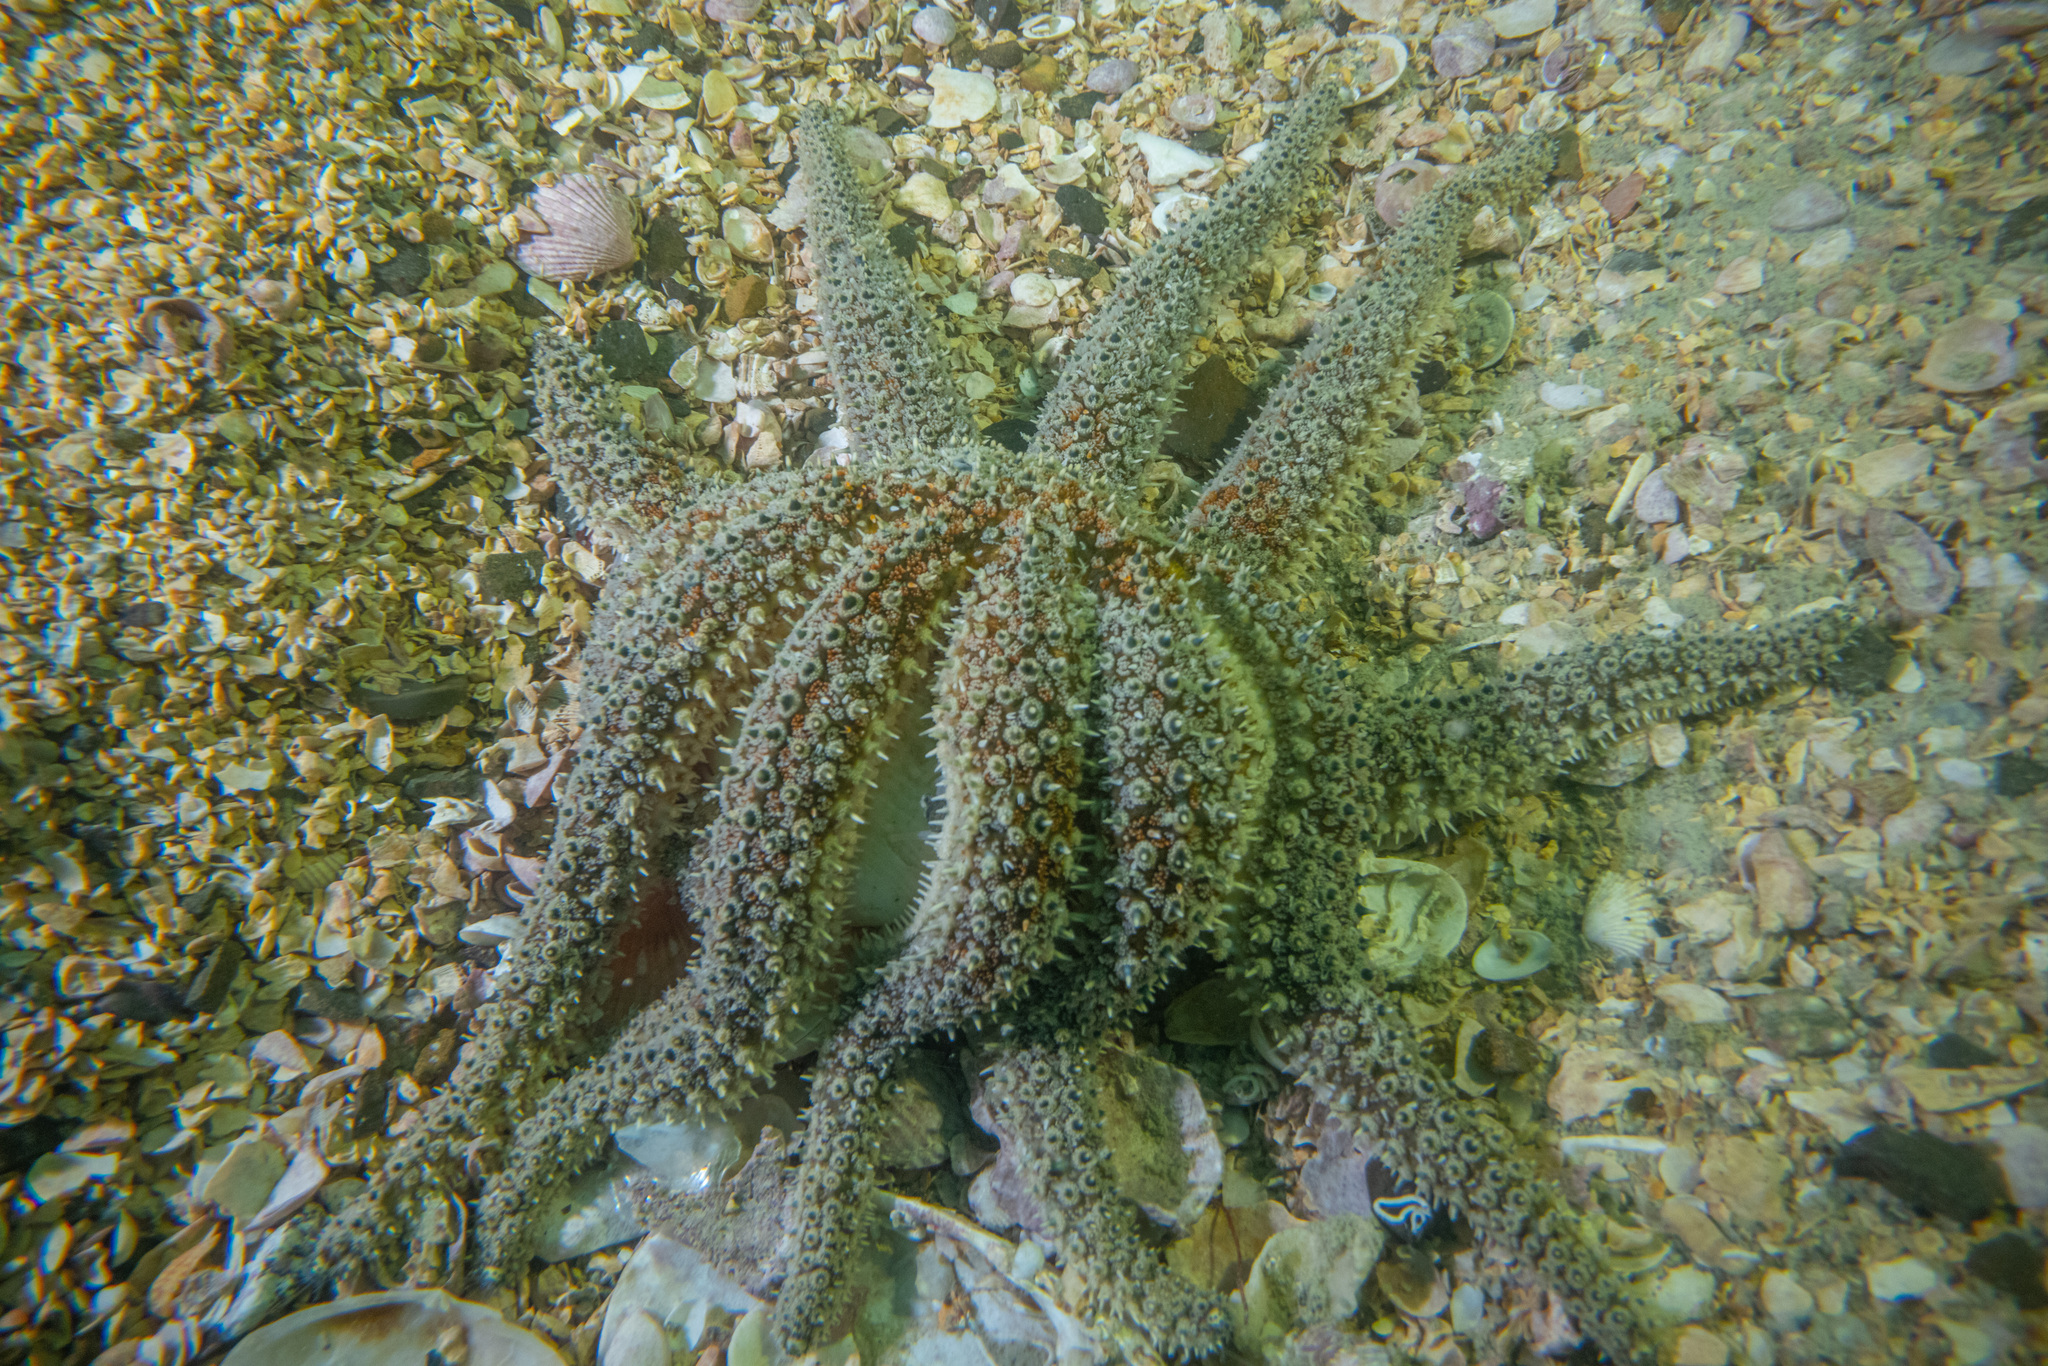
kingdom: Animalia
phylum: Echinodermata
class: Asteroidea
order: Forcipulatida
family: Asteriidae
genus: Coscinasterias
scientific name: Coscinasterias muricata
